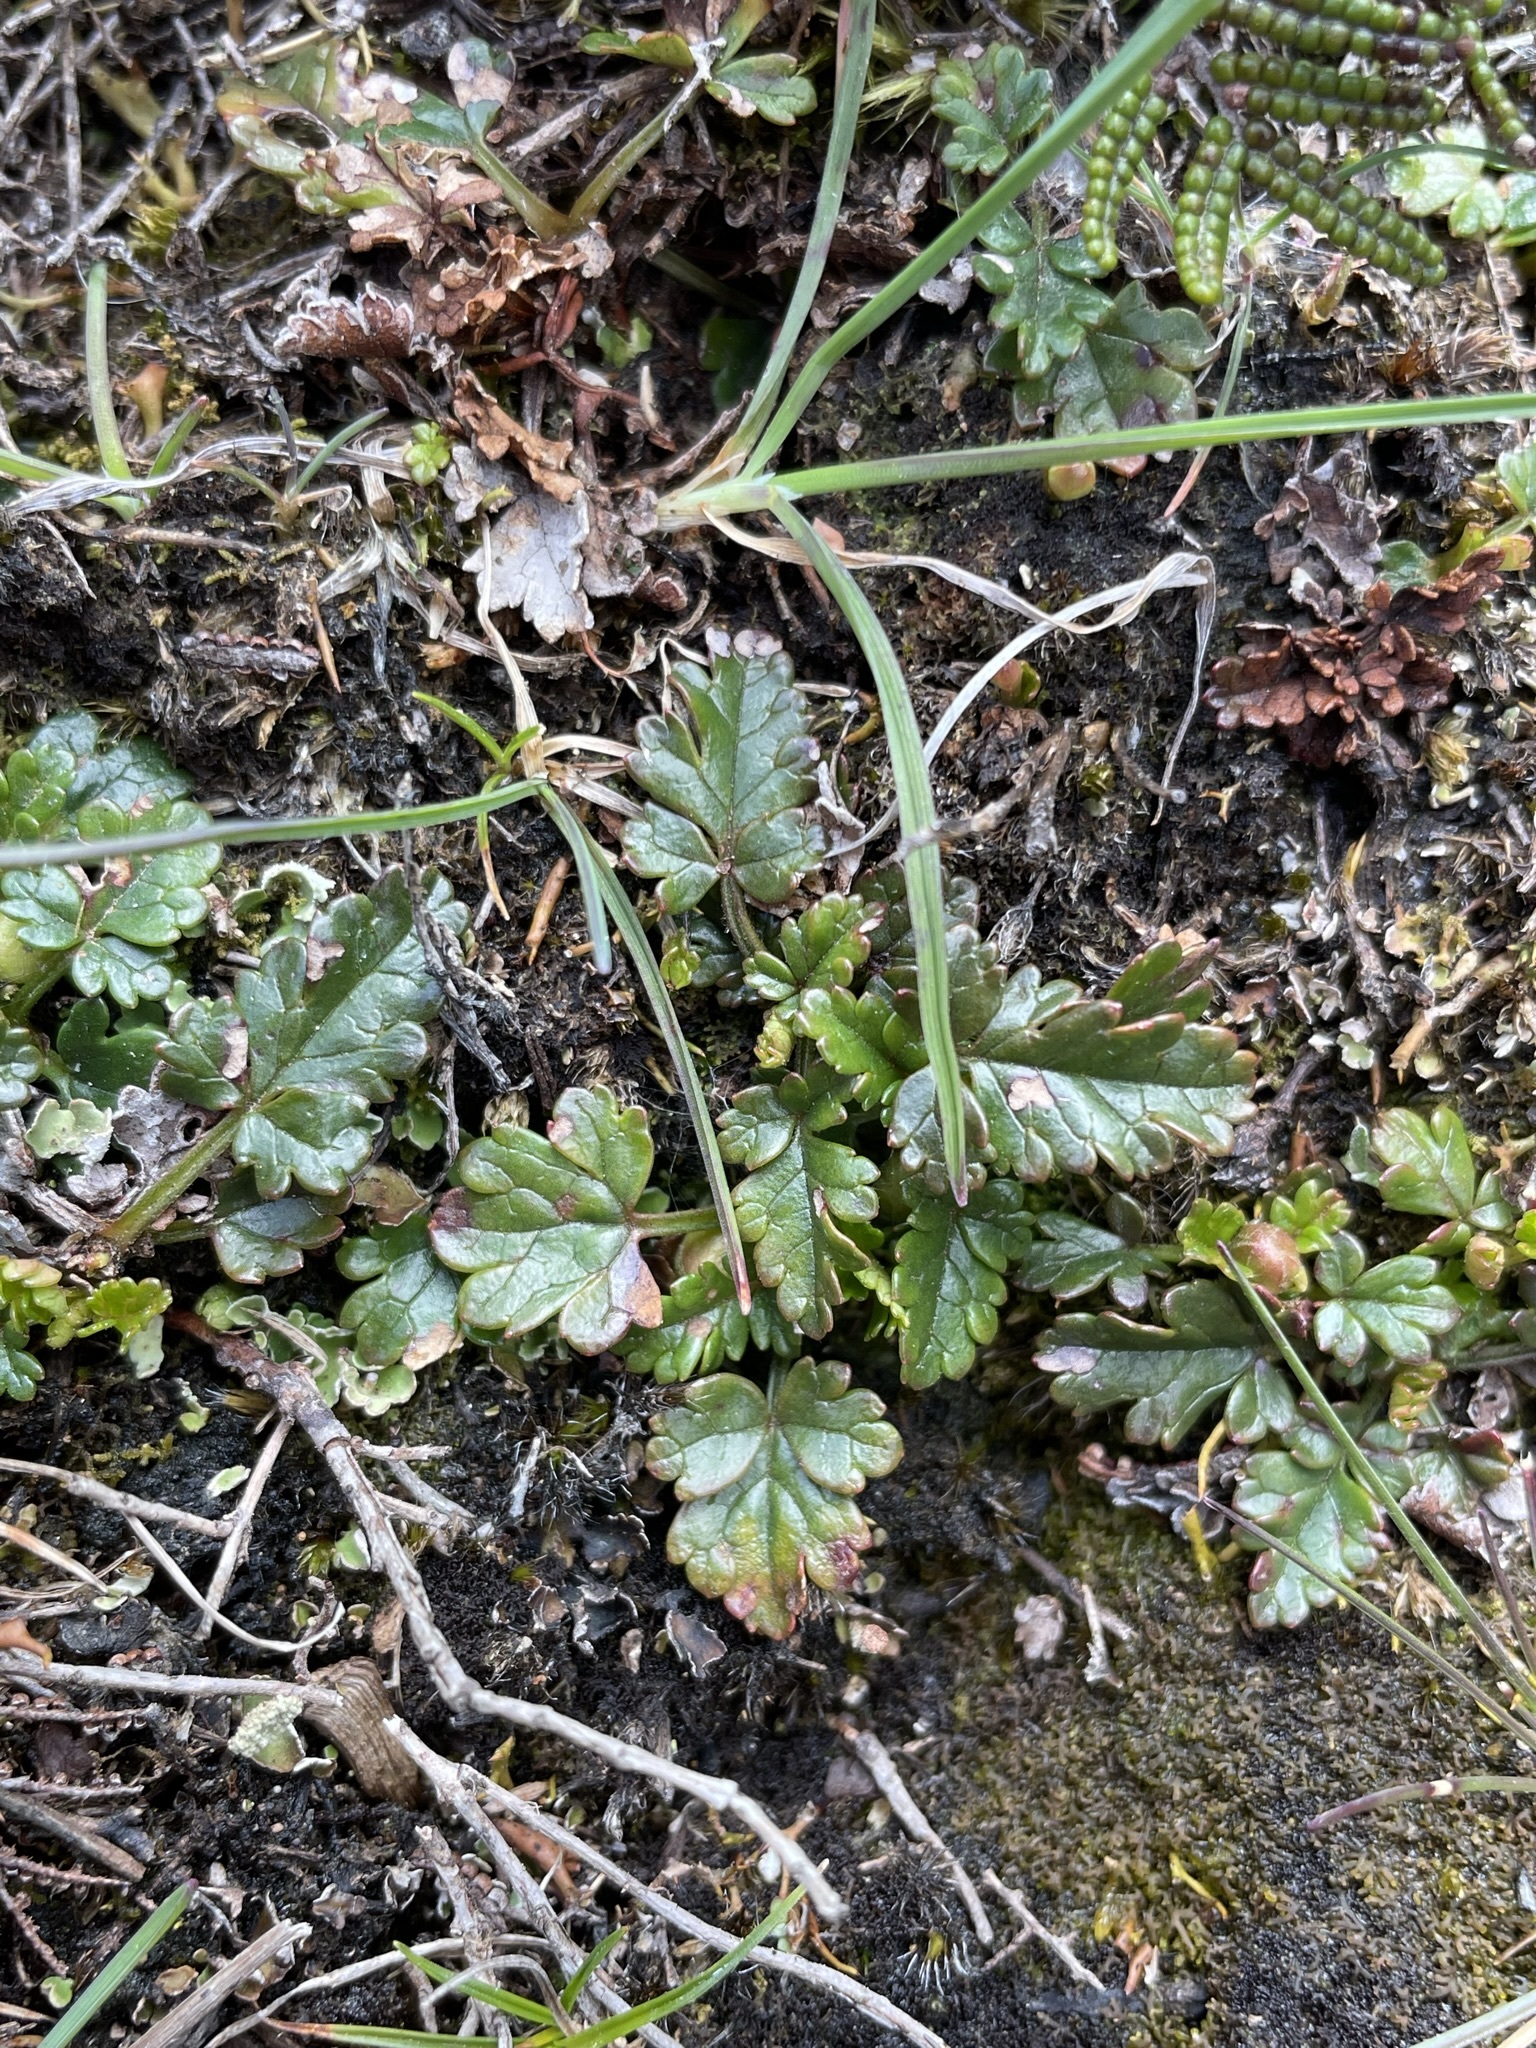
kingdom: Plantae
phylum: Tracheophyta
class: Magnoliopsida
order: Rosales
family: Rosaceae
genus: Rubus
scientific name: Rubus gunnianus
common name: Mountain raspberry
